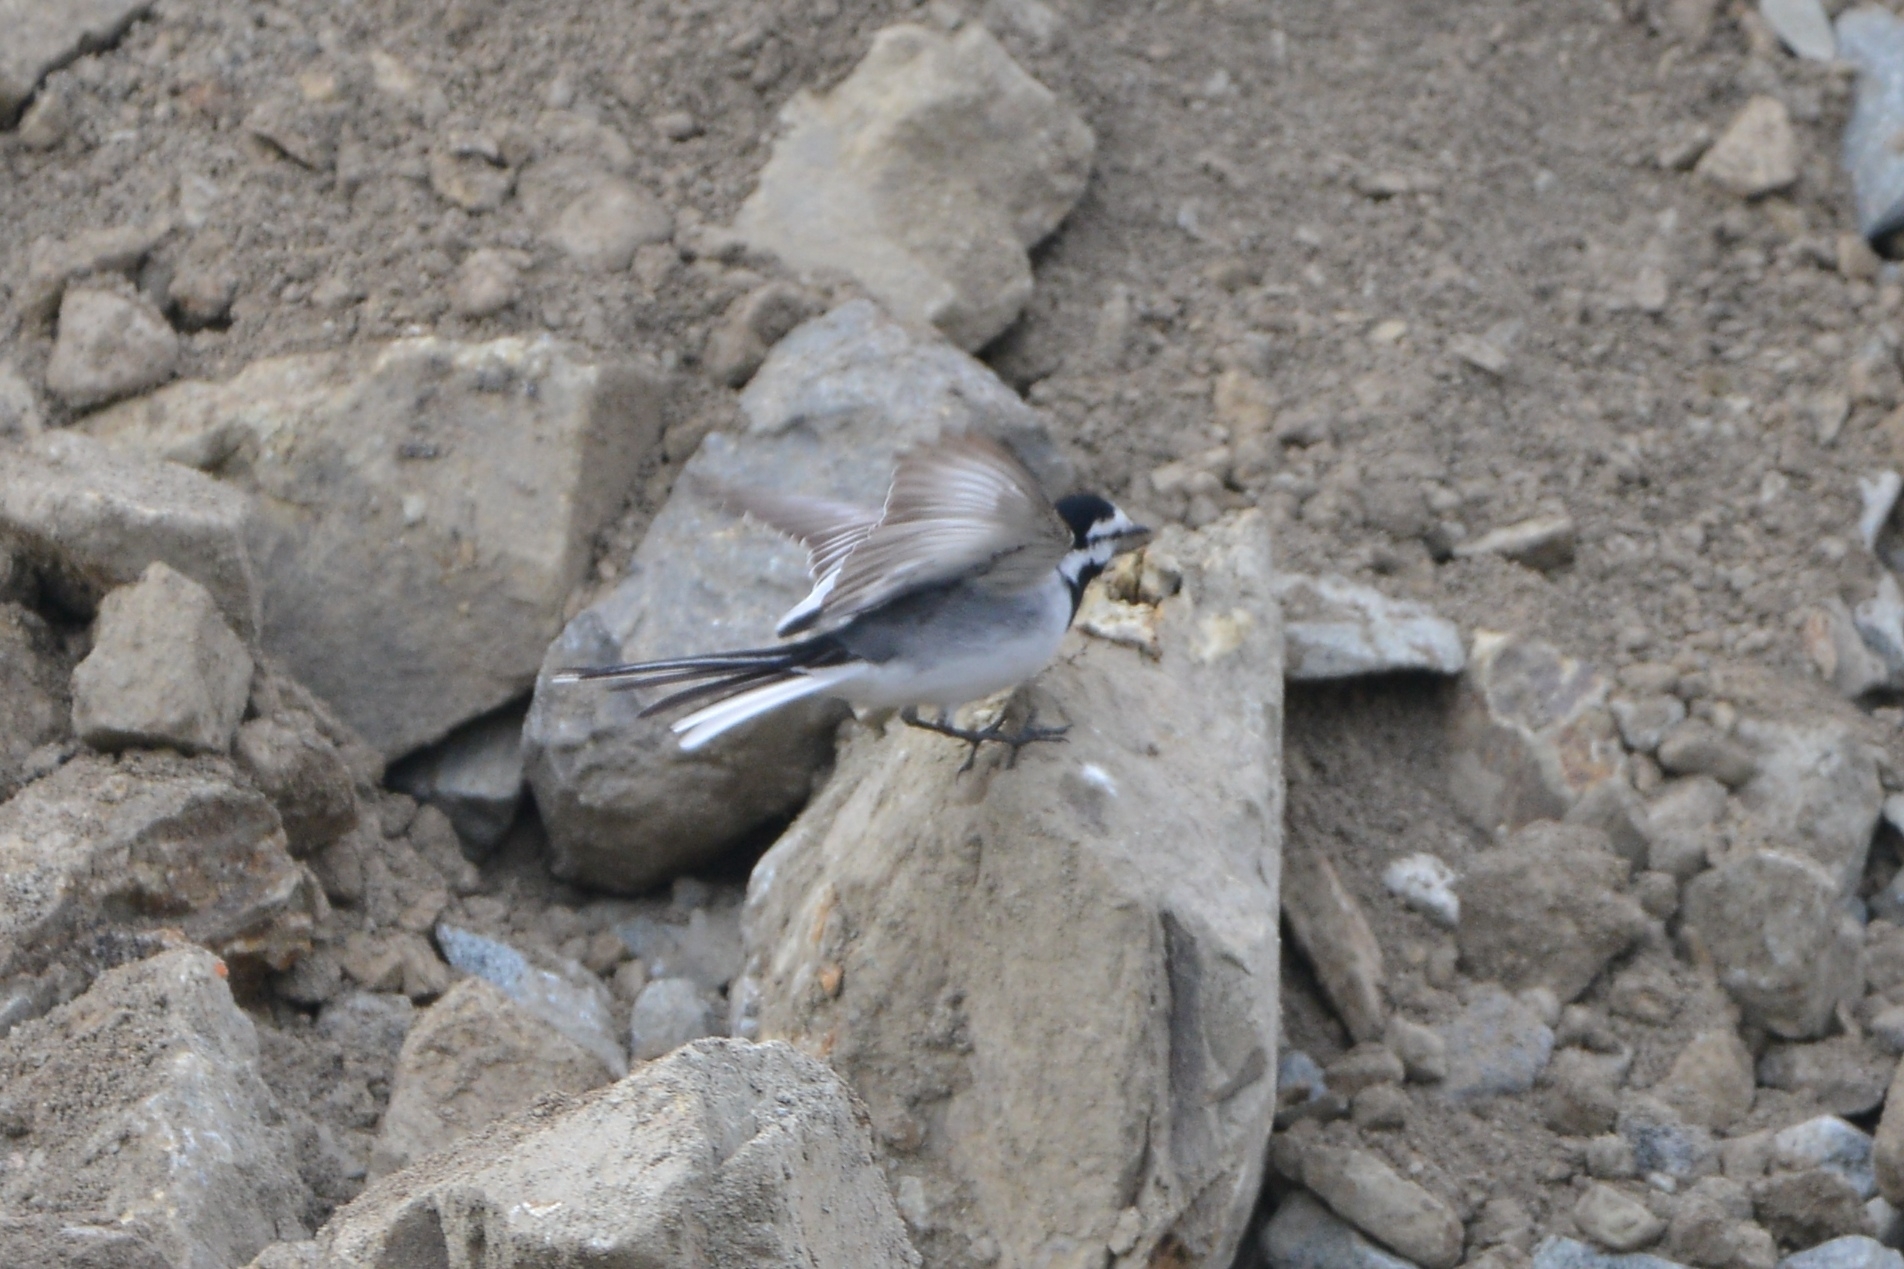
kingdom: Animalia
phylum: Chordata
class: Aves
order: Passeriformes
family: Motacillidae
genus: Motacilla
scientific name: Motacilla alba
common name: White wagtail
